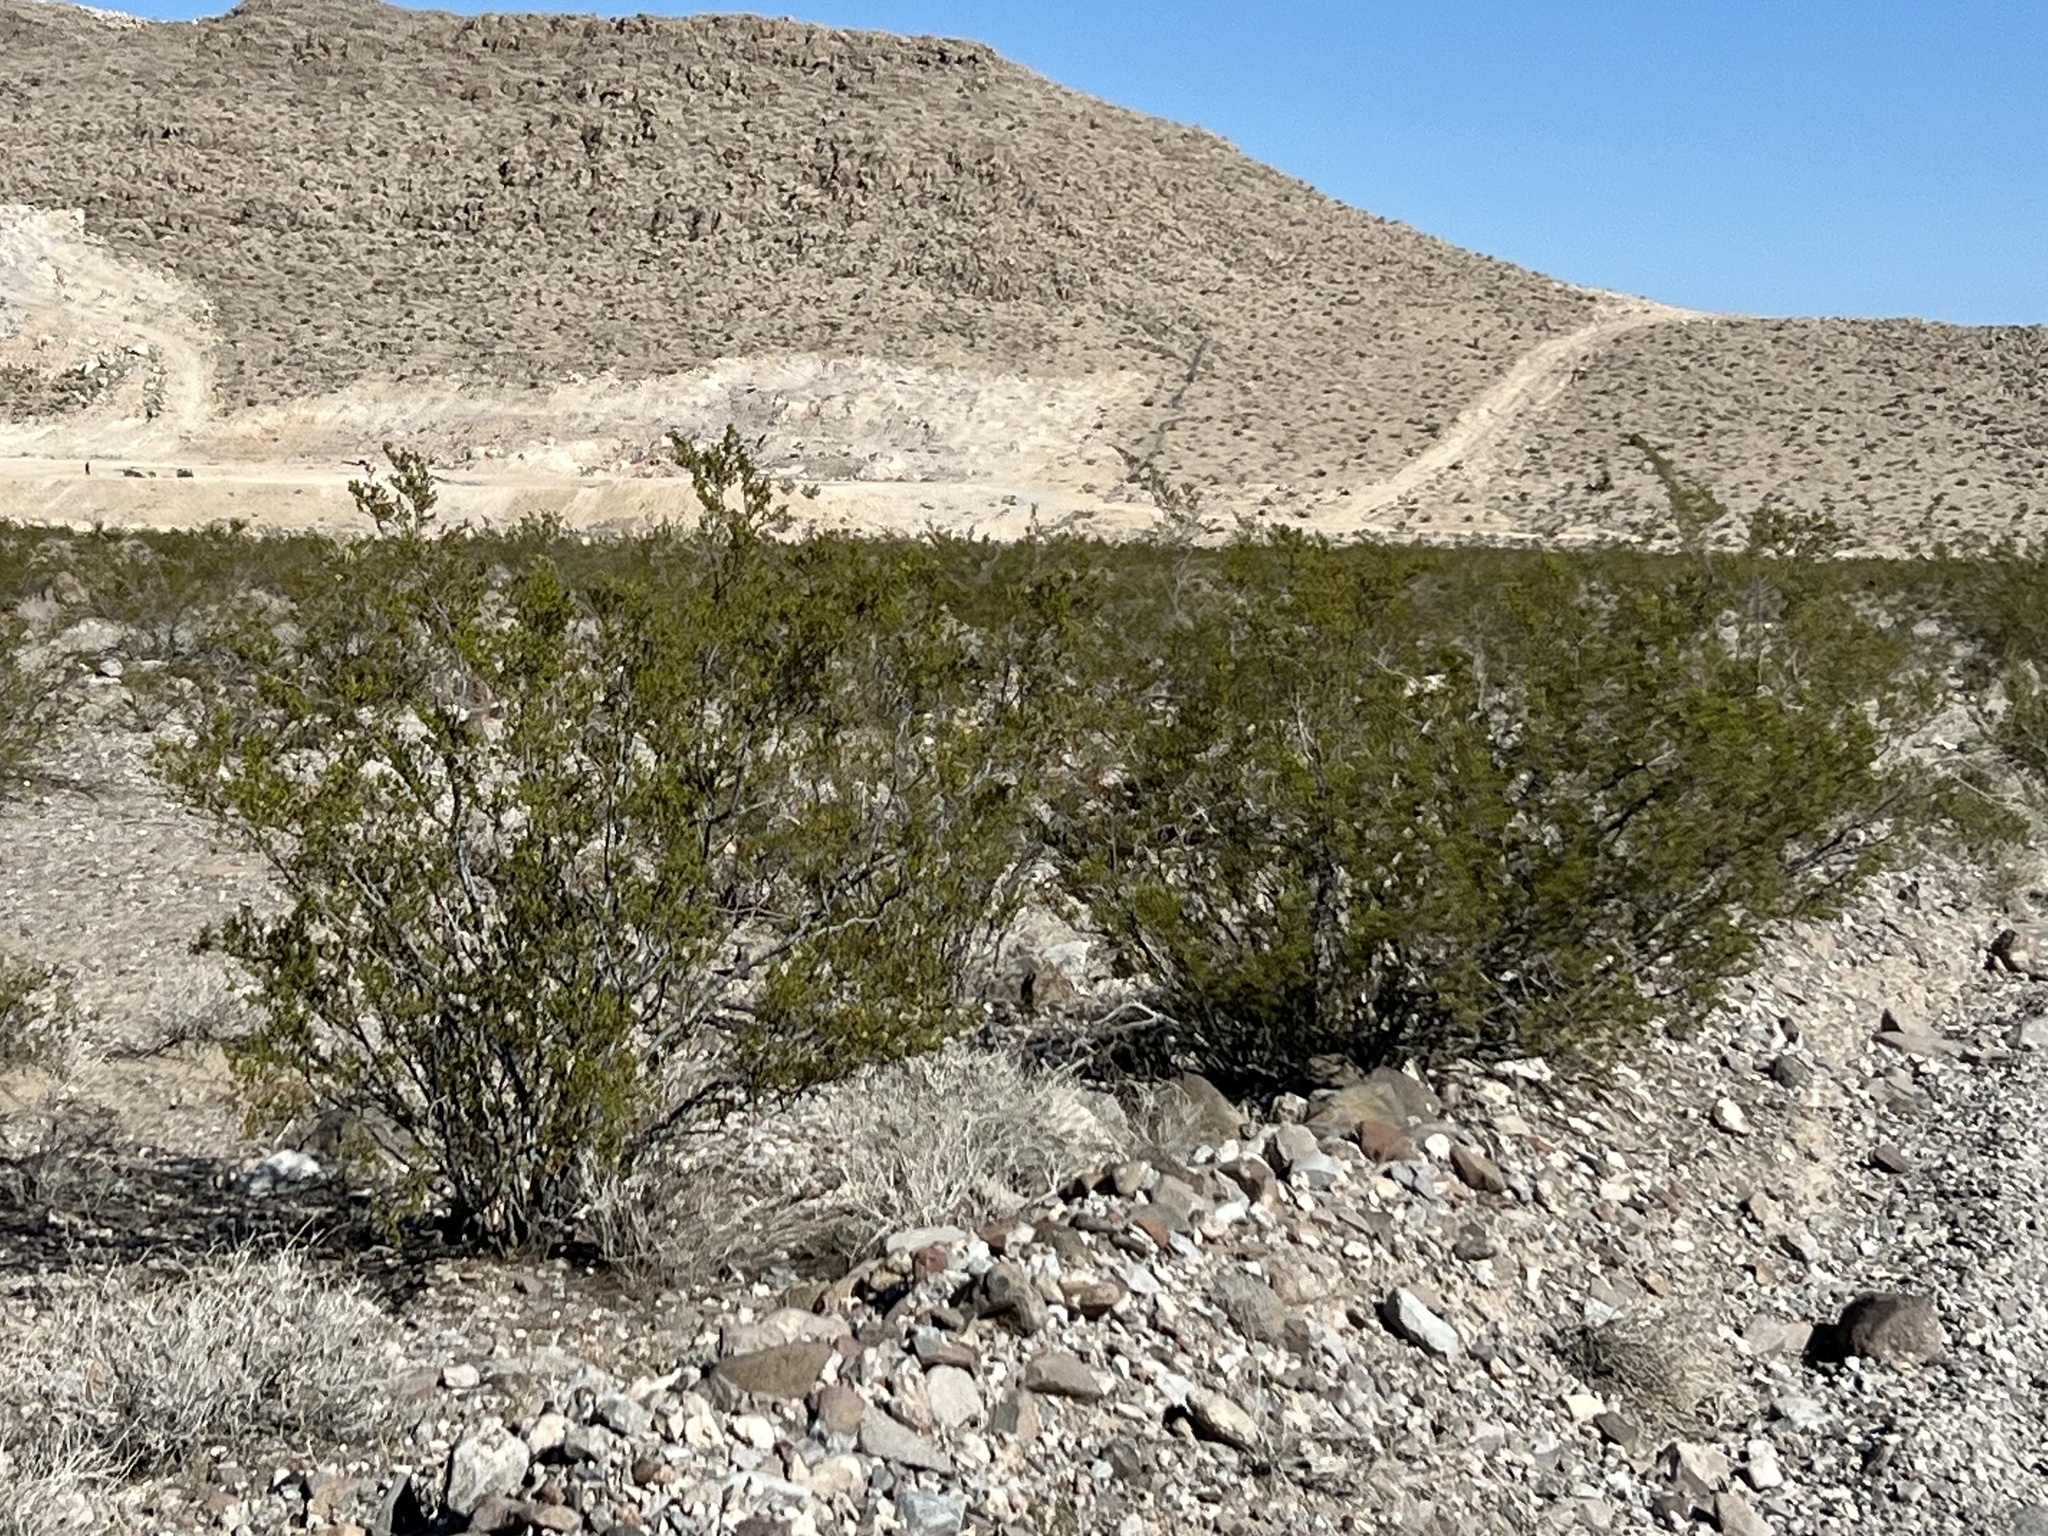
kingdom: Plantae
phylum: Tracheophyta
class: Magnoliopsida
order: Zygophyllales
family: Zygophyllaceae
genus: Larrea
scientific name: Larrea tridentata
